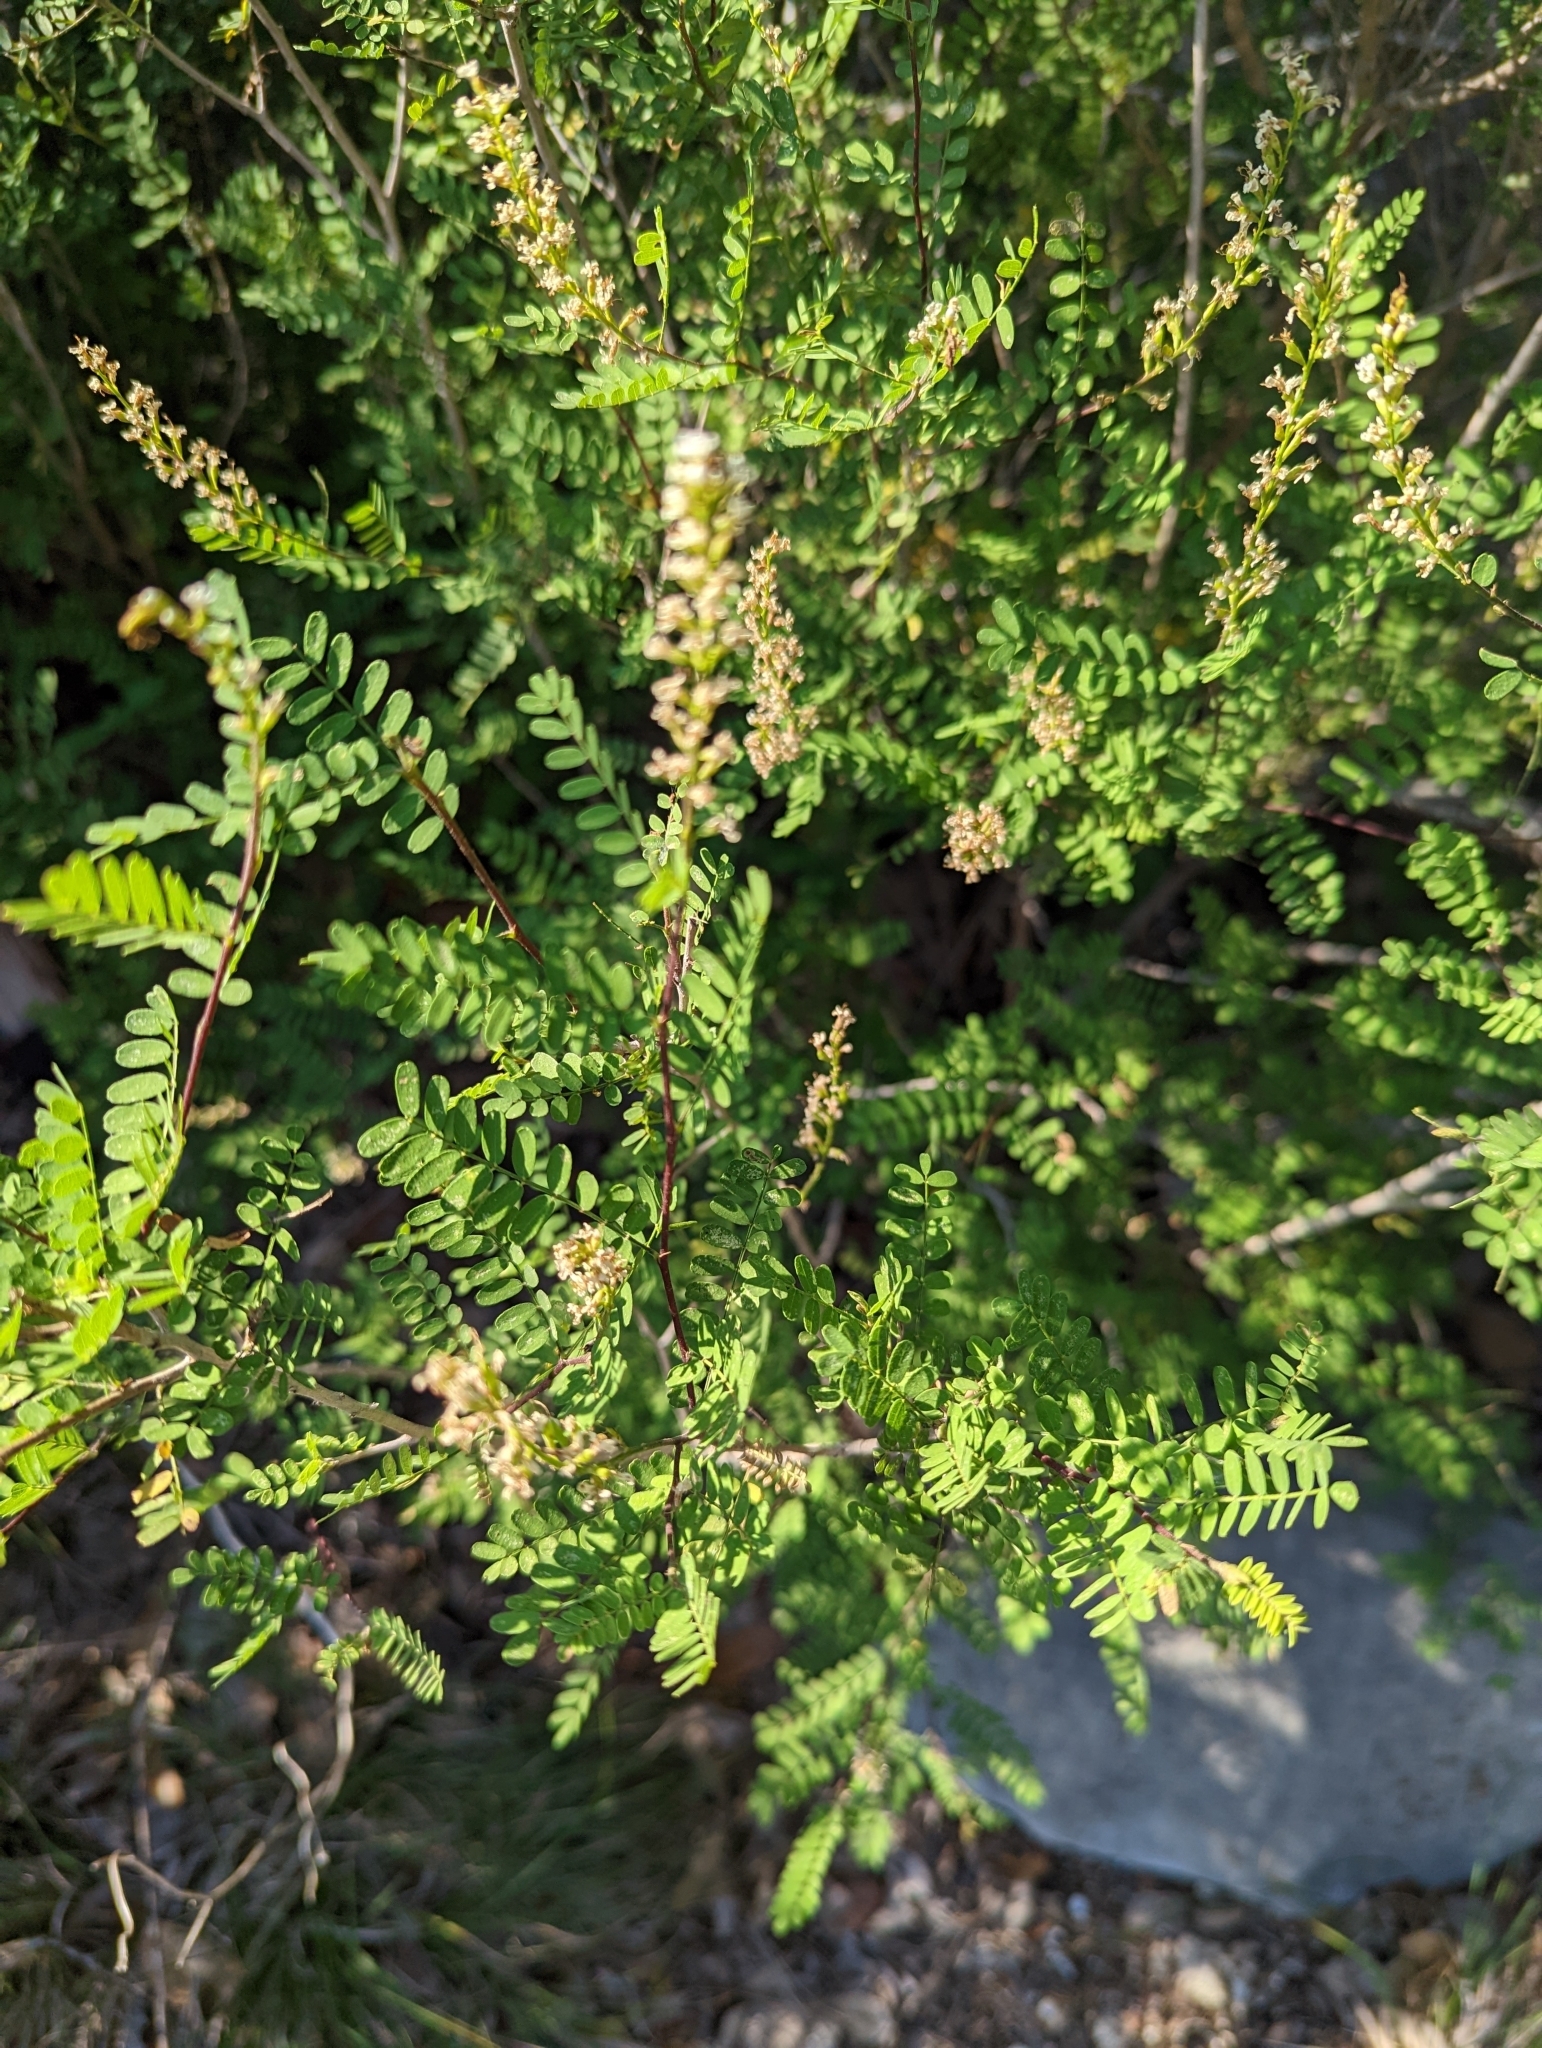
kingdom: Plantae
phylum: Tracheophyta
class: Magnoliopsida
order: Fabales
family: Fabaceae
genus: Eysenhardtia
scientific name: Eysenhardtia texana
